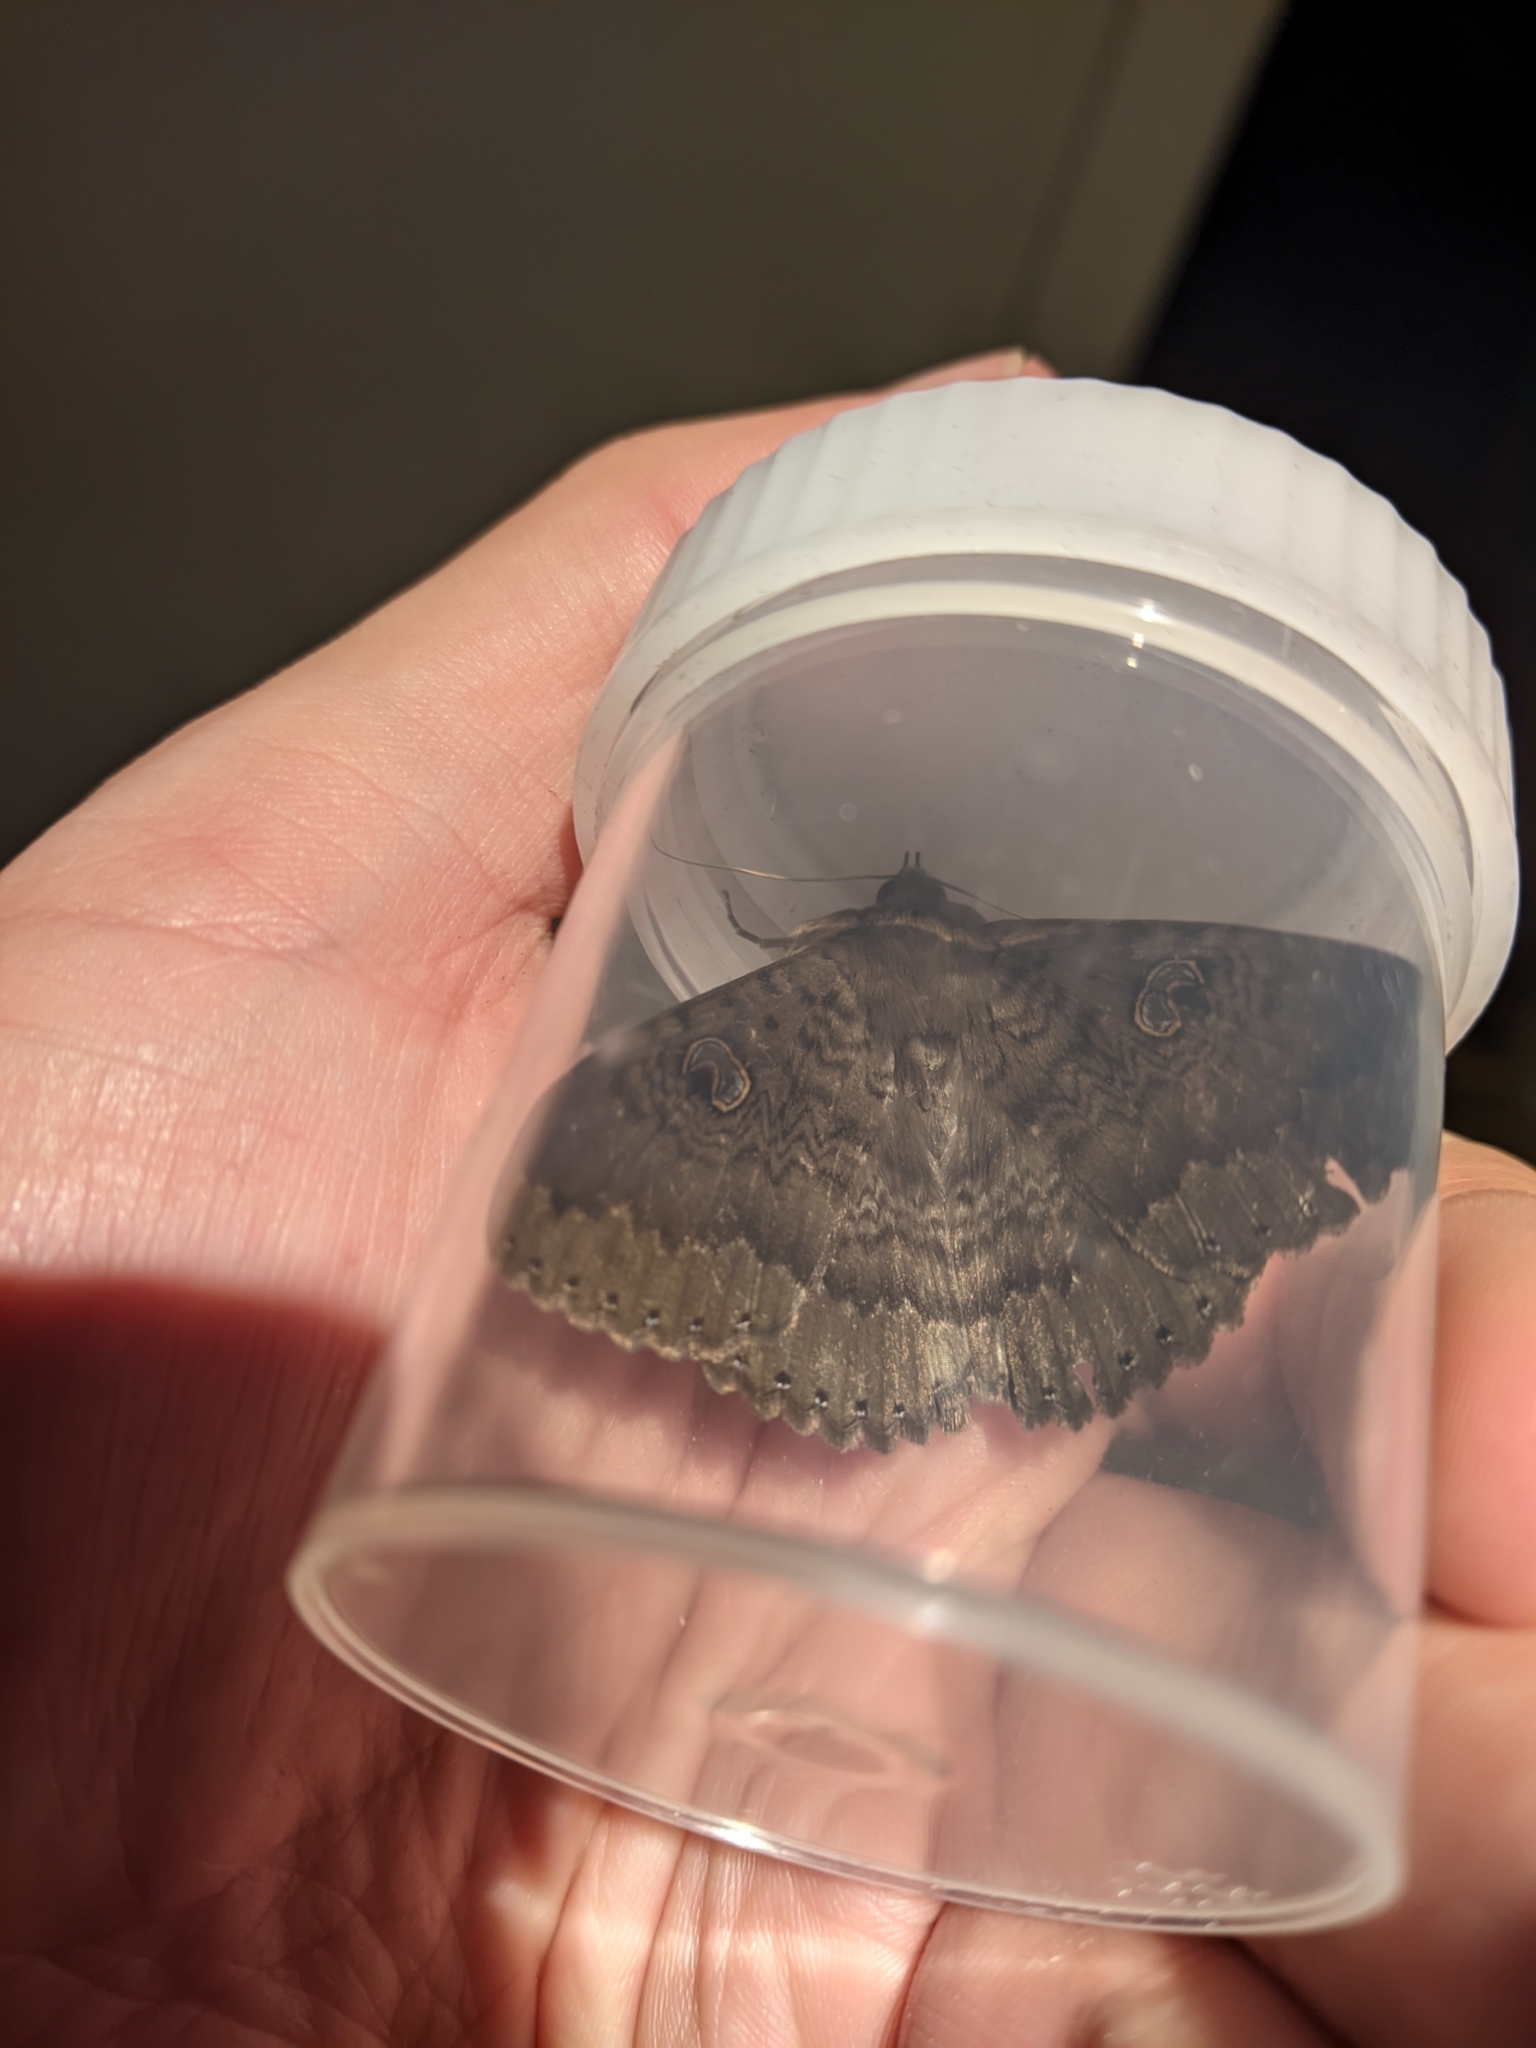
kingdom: Animalia
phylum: Arthropoda
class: Insecta
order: Lepidoptera
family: Erebidae
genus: Dasypodia
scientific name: Dasypodia cymatodes
